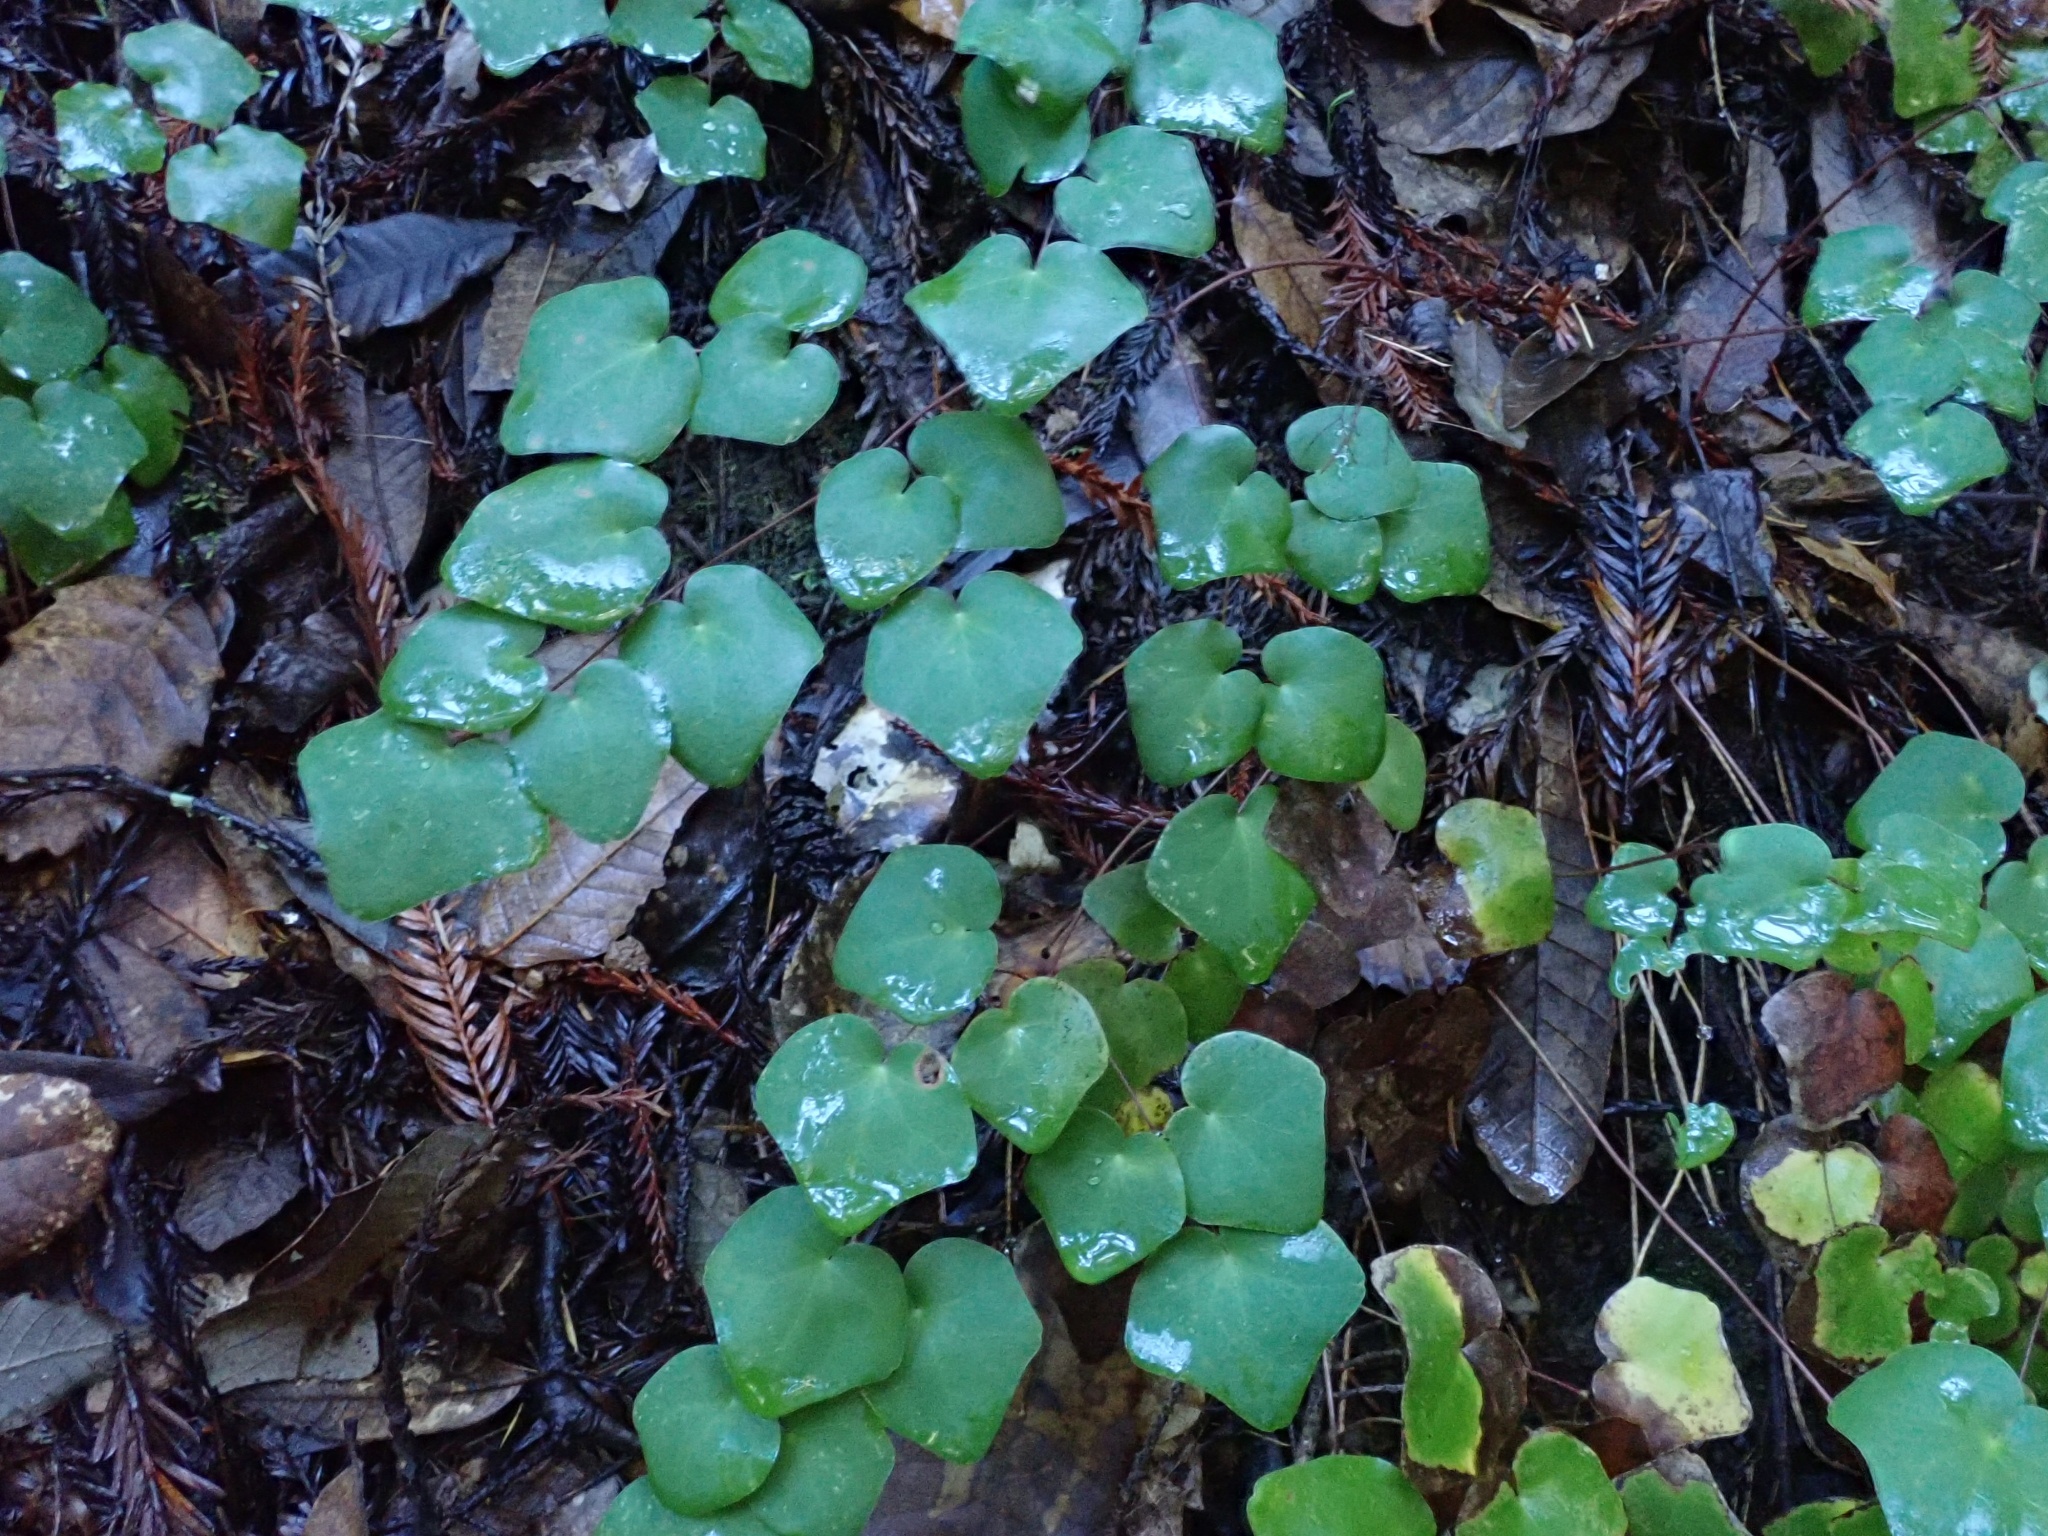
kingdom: Plantae
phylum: Tracheophyta
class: Magnoliopsida
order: Ranunculales
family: Berberidaceae
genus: Vancouveria
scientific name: Vancouveria planipetala
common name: Redwood-ivy
